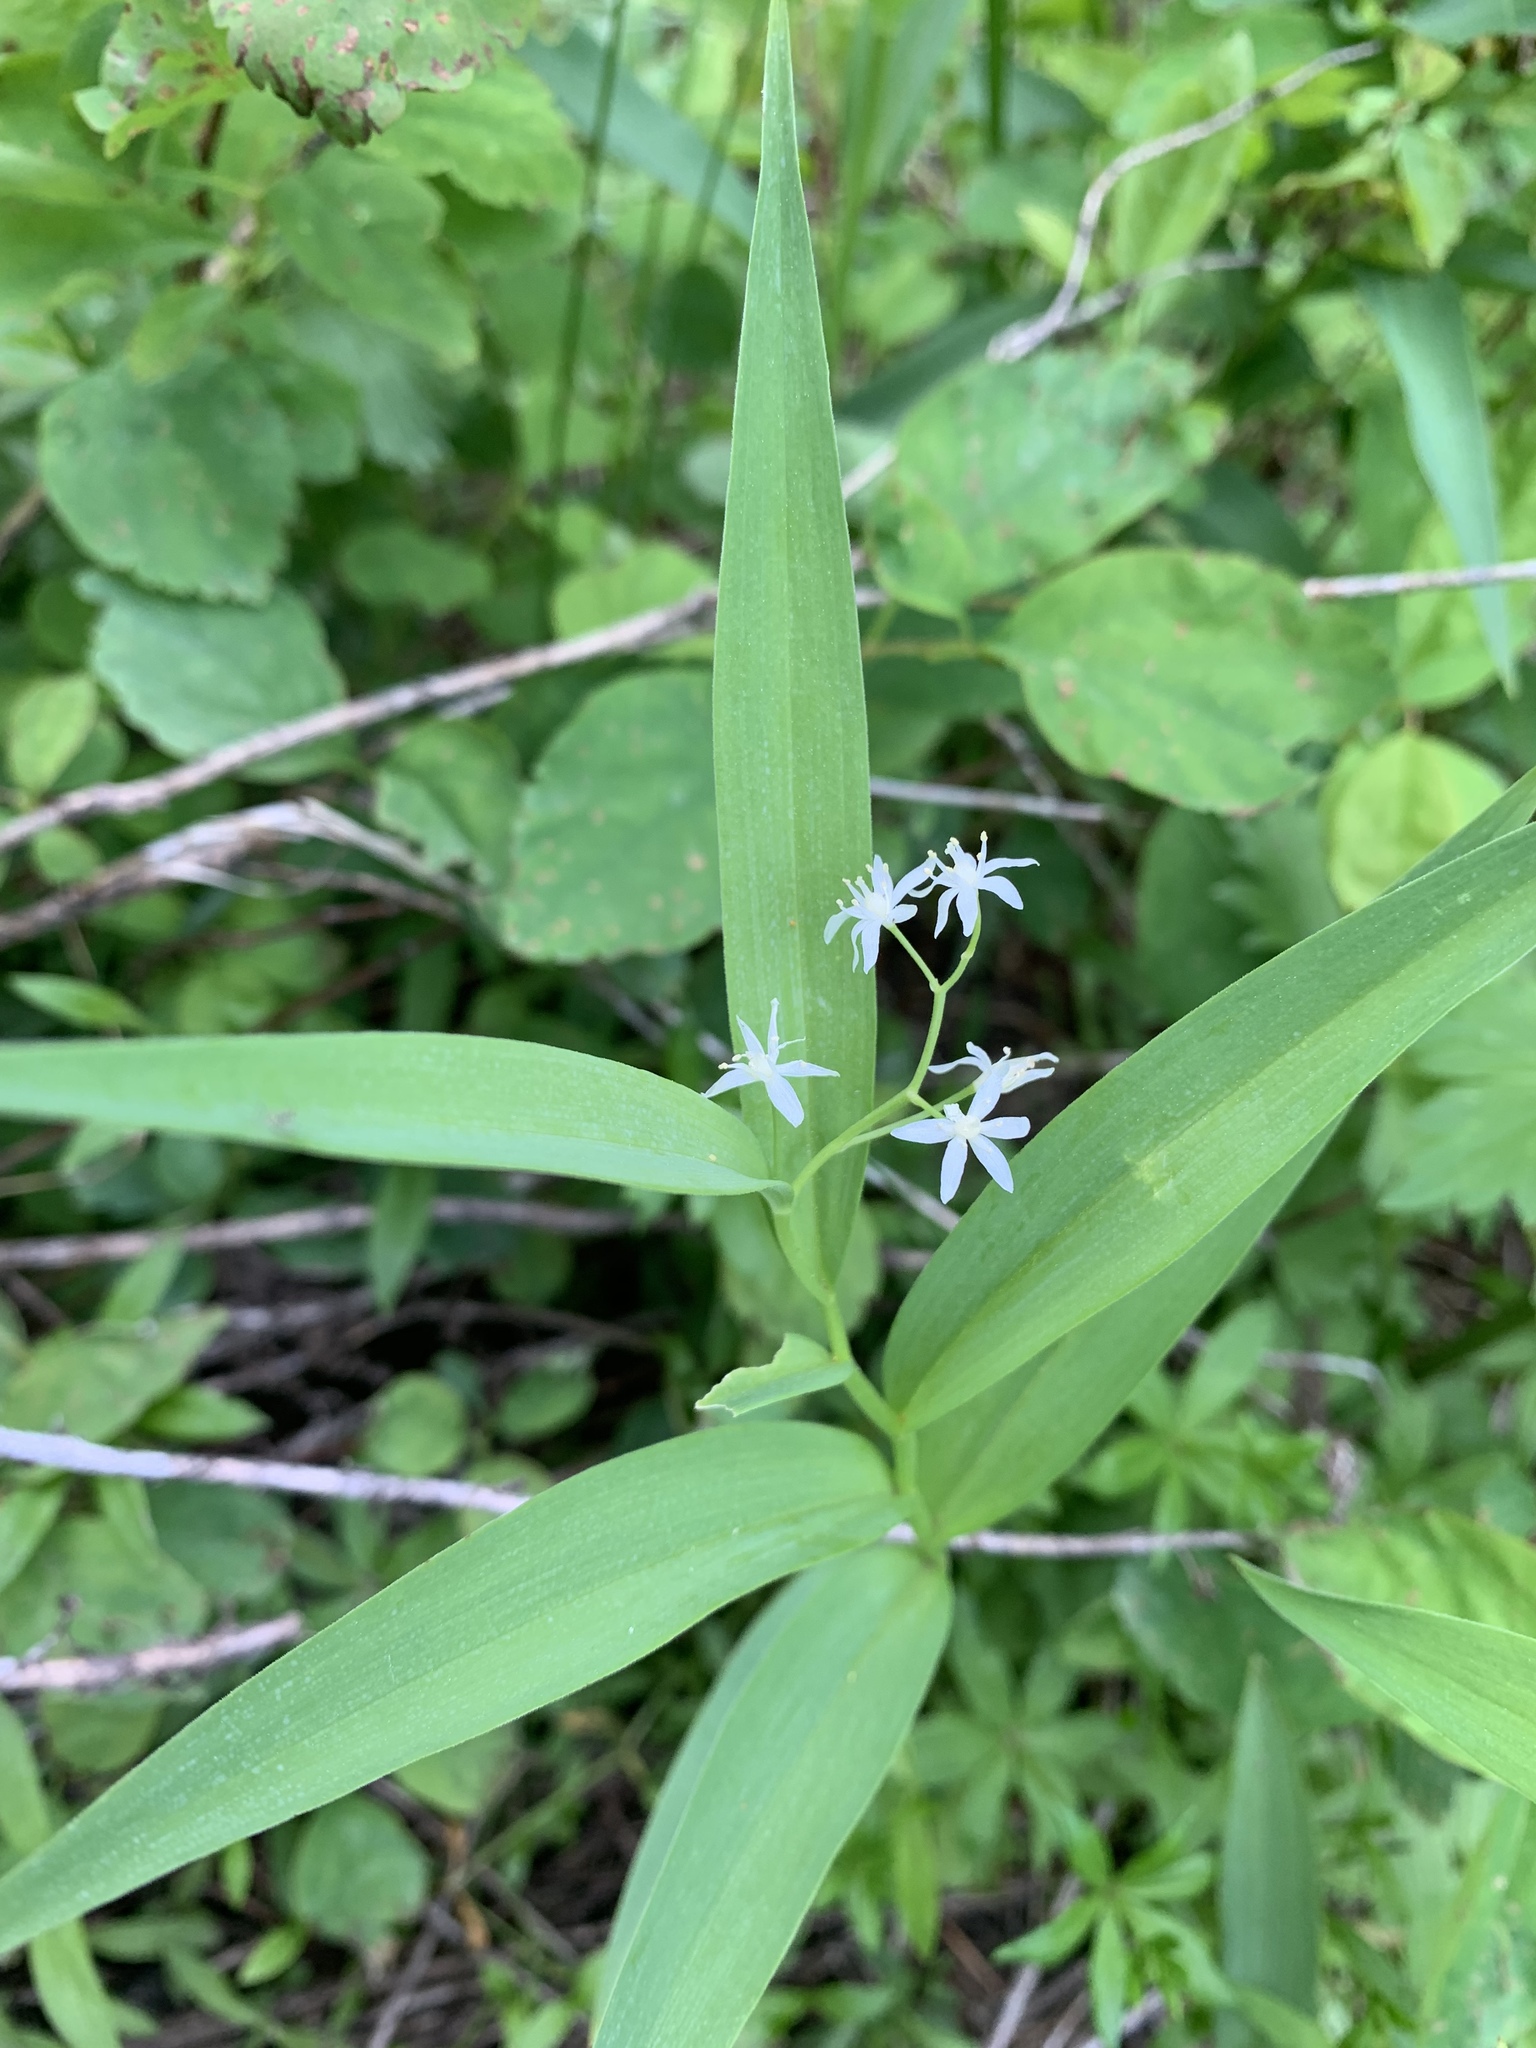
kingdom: Plantae
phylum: Tracheophyta
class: Liliopsida
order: Asparagales
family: Asparagaceae
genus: Maianthemum
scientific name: Maianthemum stellatum
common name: Little false solomon's seal
